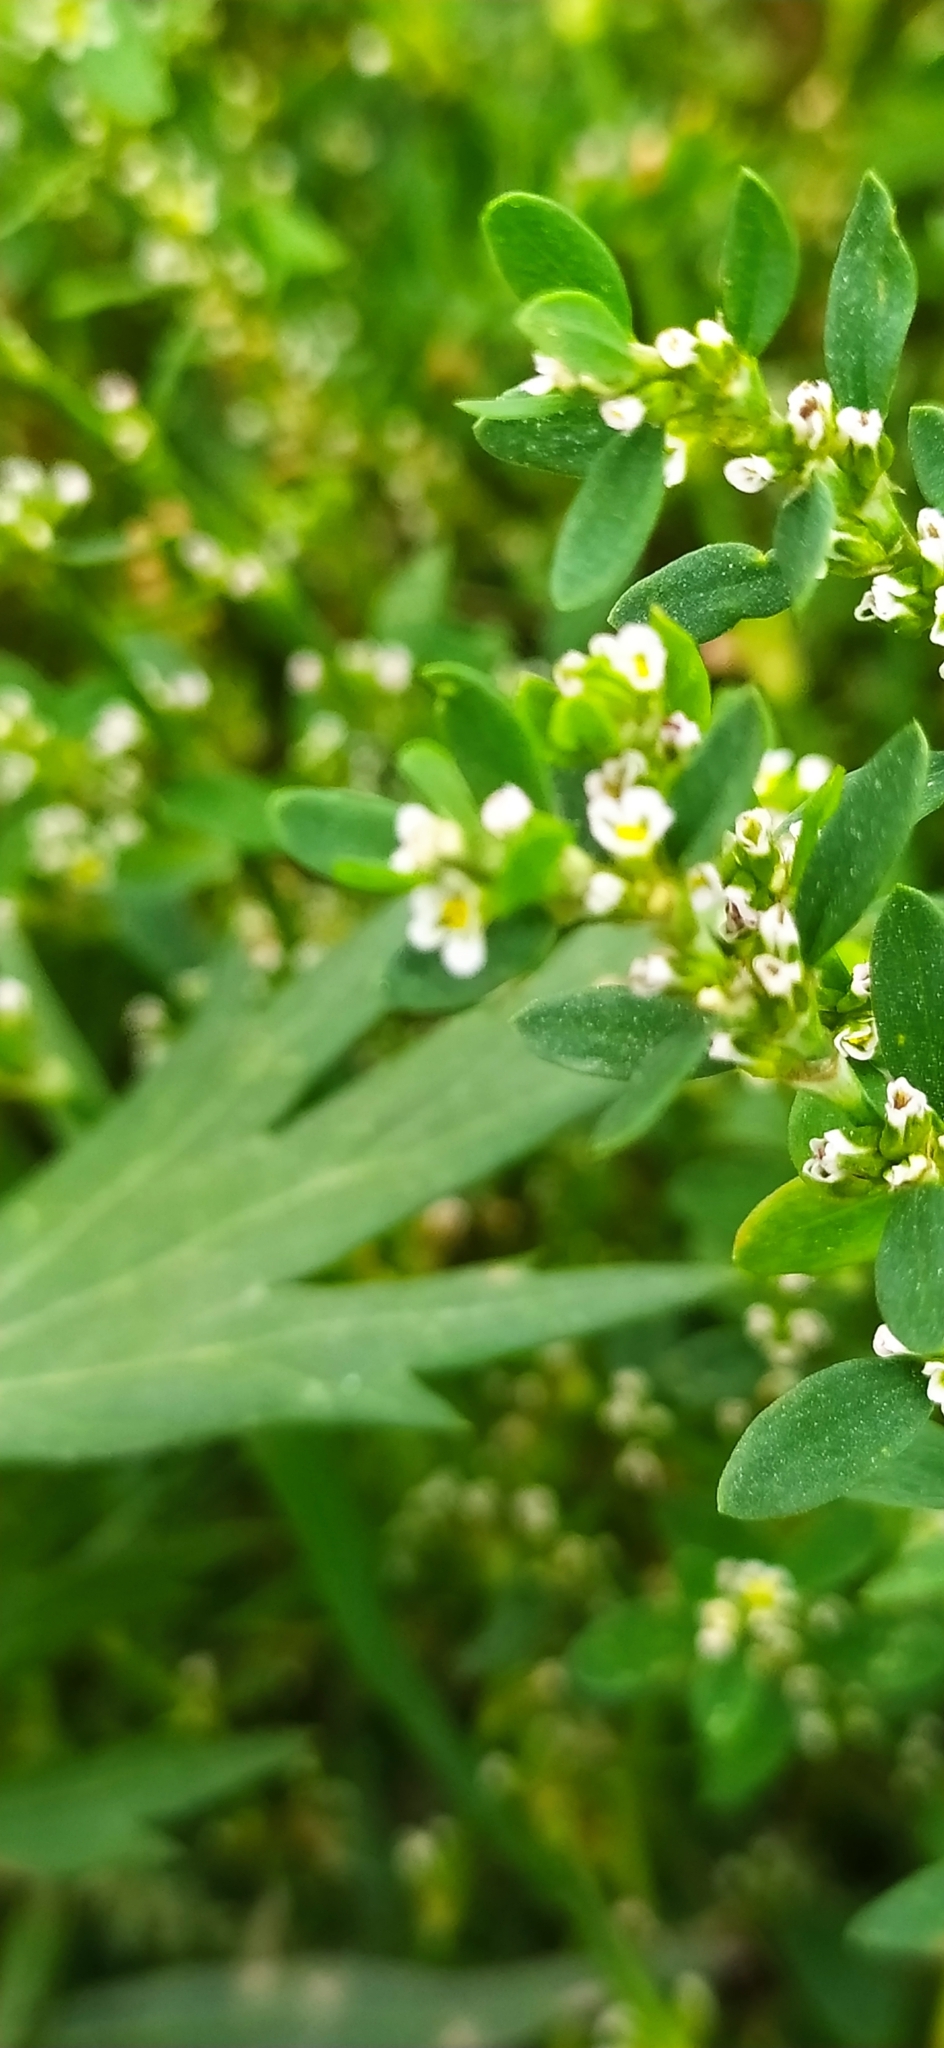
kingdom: Plantae
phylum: Tracheophyta
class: Magnoliopsida
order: Caryophyllales
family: Polygonaceae
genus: Polygonum
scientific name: Polygonum arenastrum
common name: Equal-leaved knotgrass
